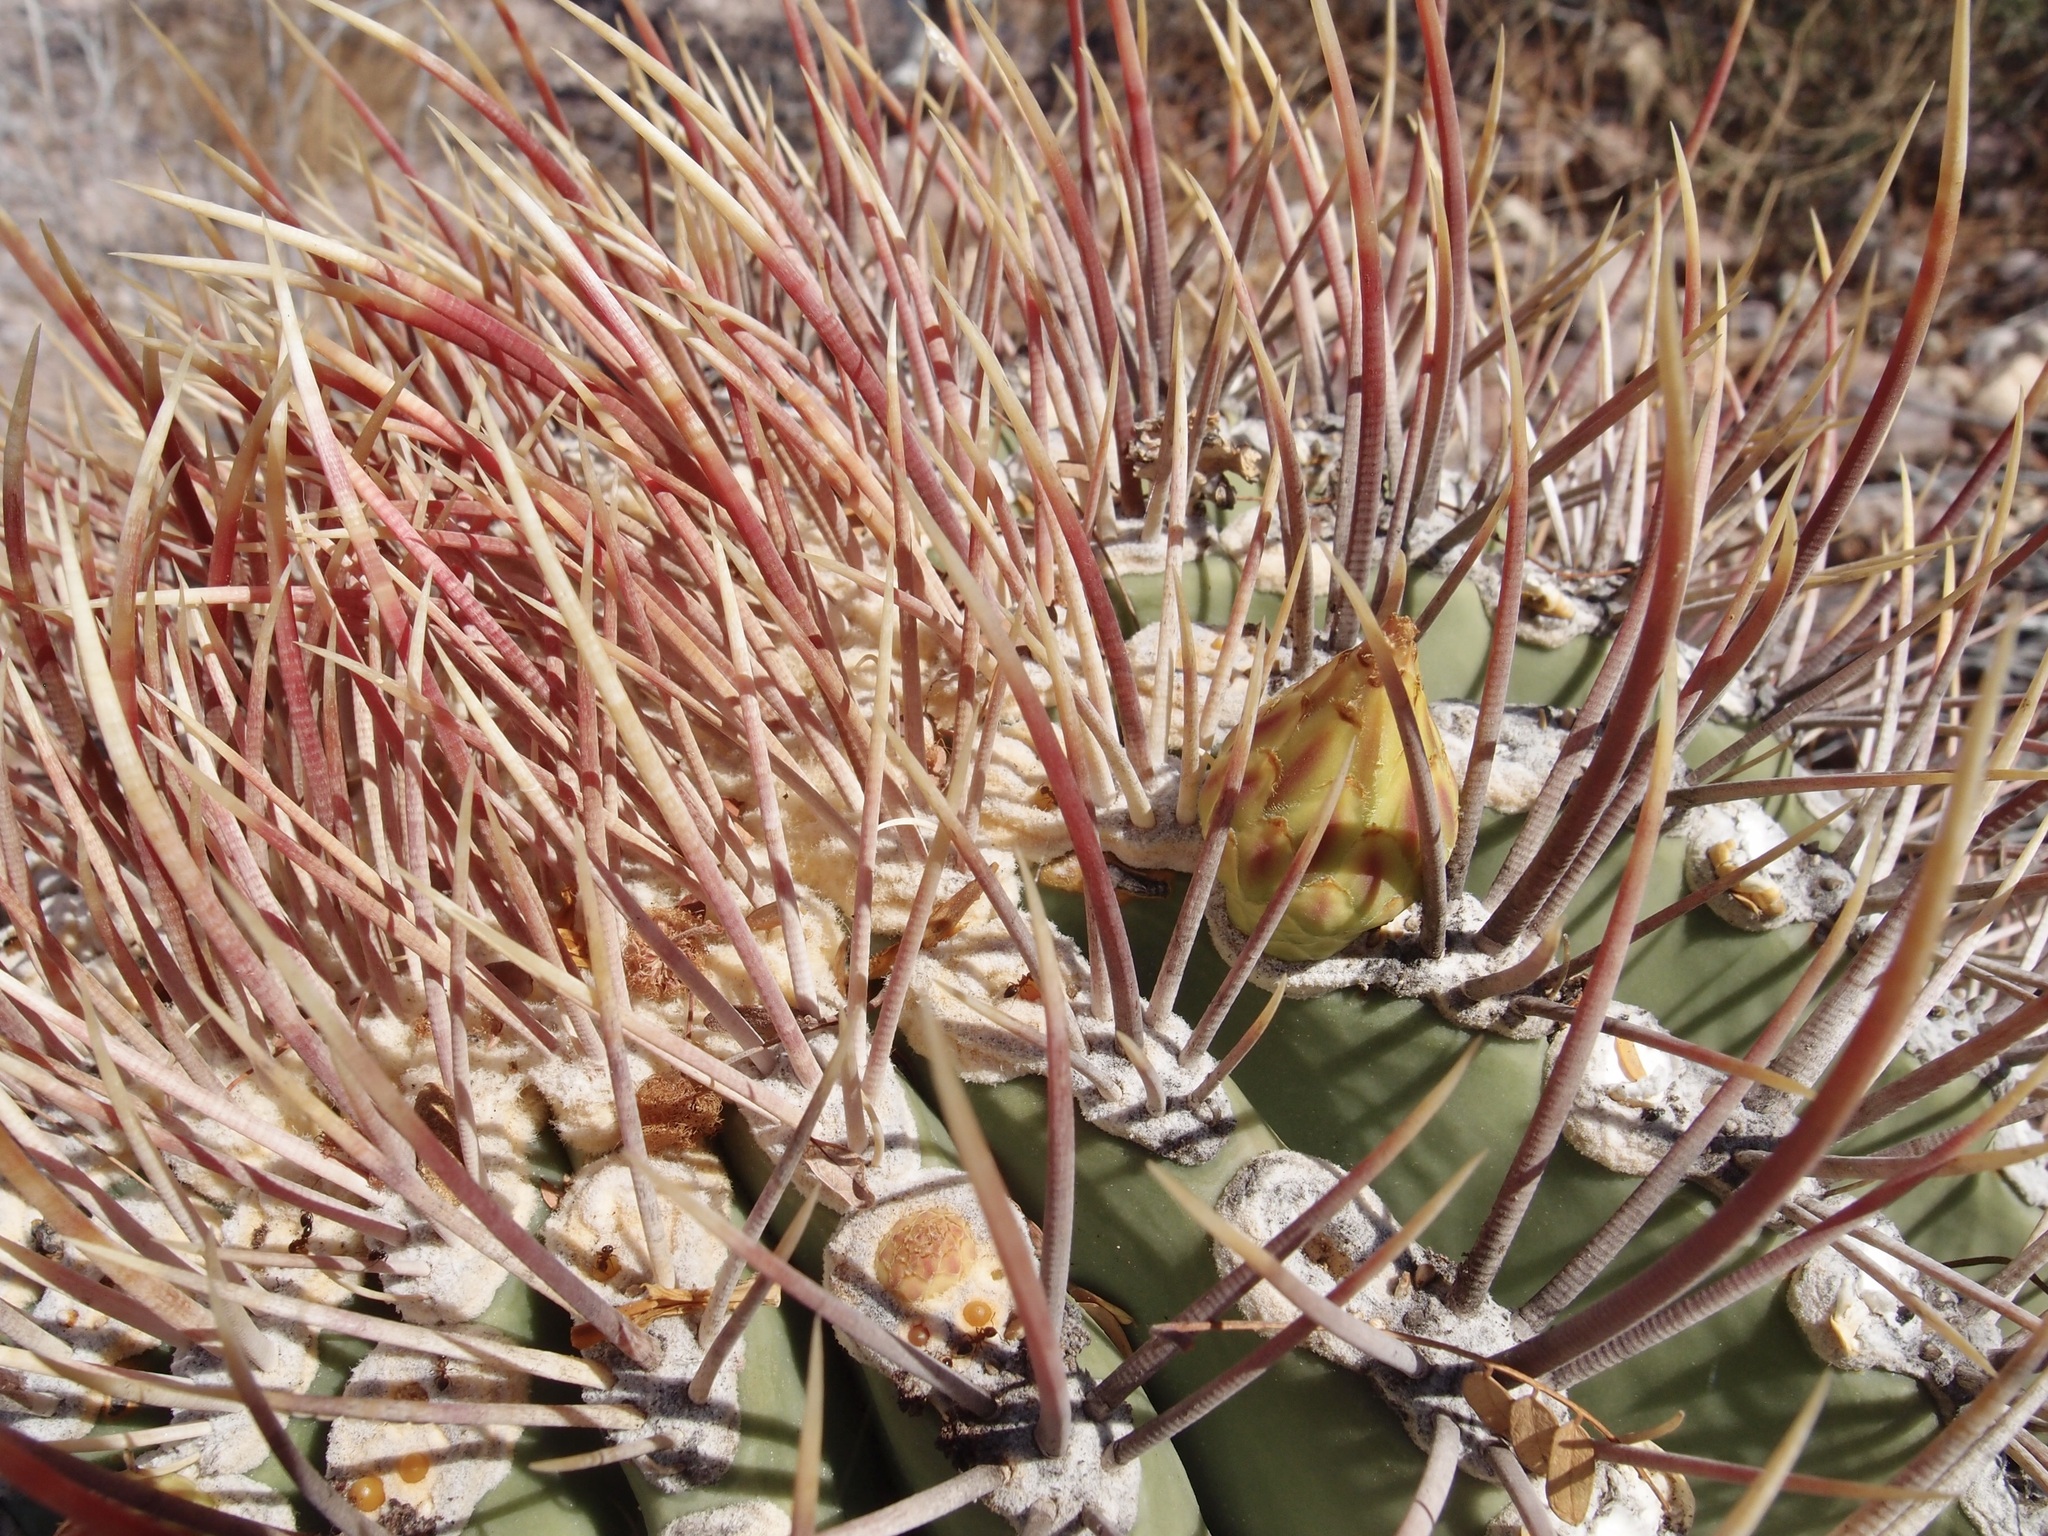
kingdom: Plantae
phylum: Tracheophyta
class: Magnoliopsida
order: Caryophyllales
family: Cactaceae
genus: Ferocactus
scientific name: Ferocactus emoryi
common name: Emory's barrel cactus
